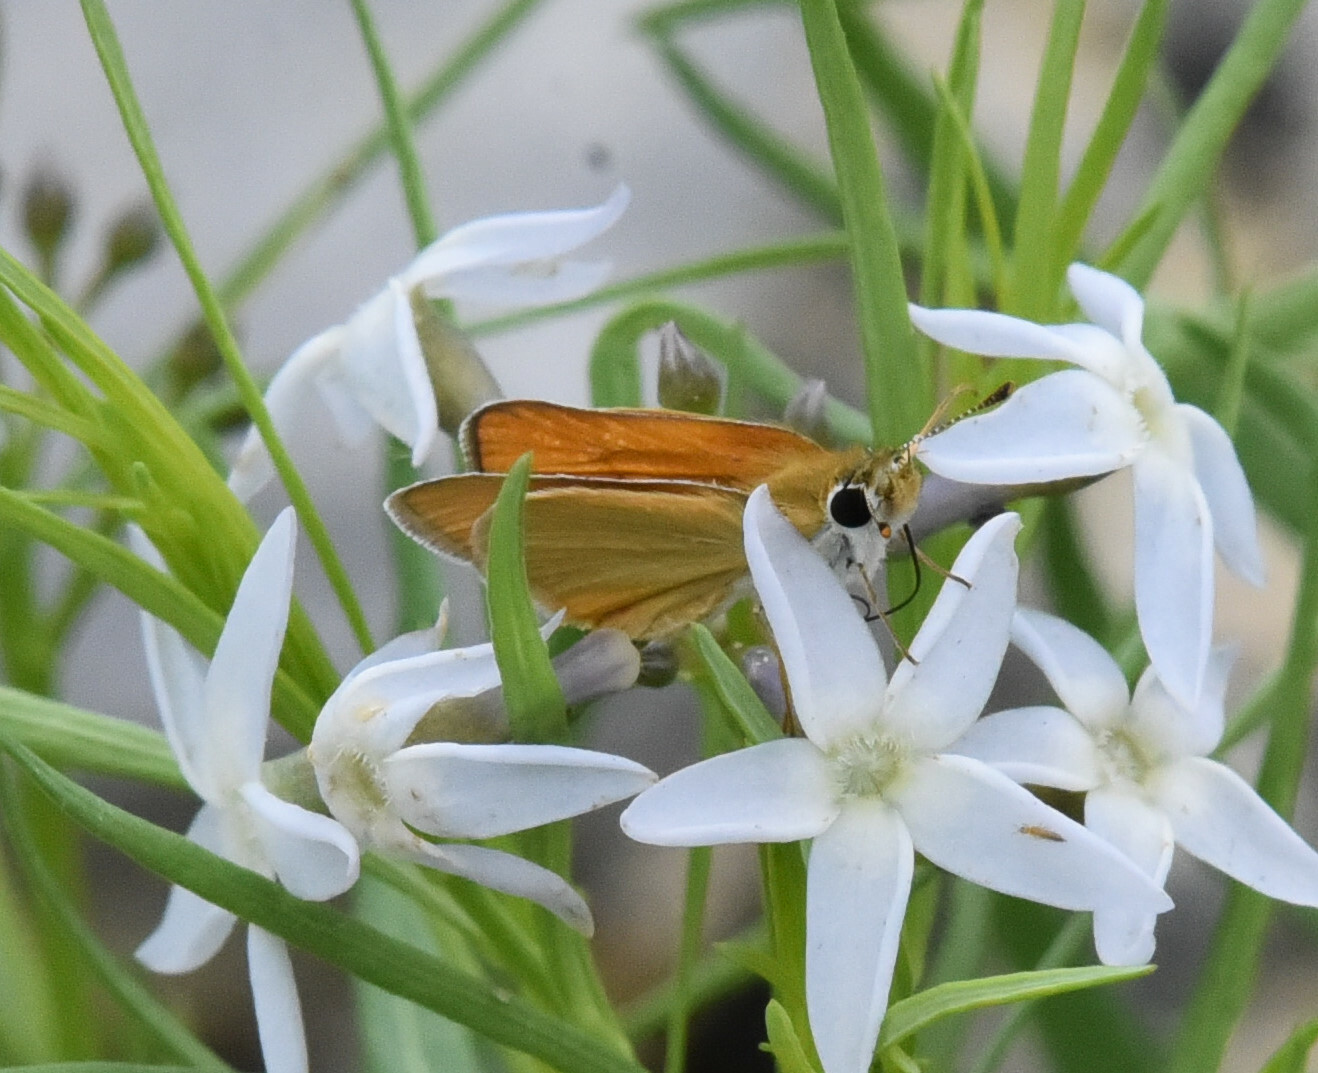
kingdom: Animalia
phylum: Arthropoda
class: Insecta
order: Lepidoptera
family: Hesperiidae
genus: Copaeodes
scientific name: Copaeodes aurantiaca
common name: Orange skipperling
